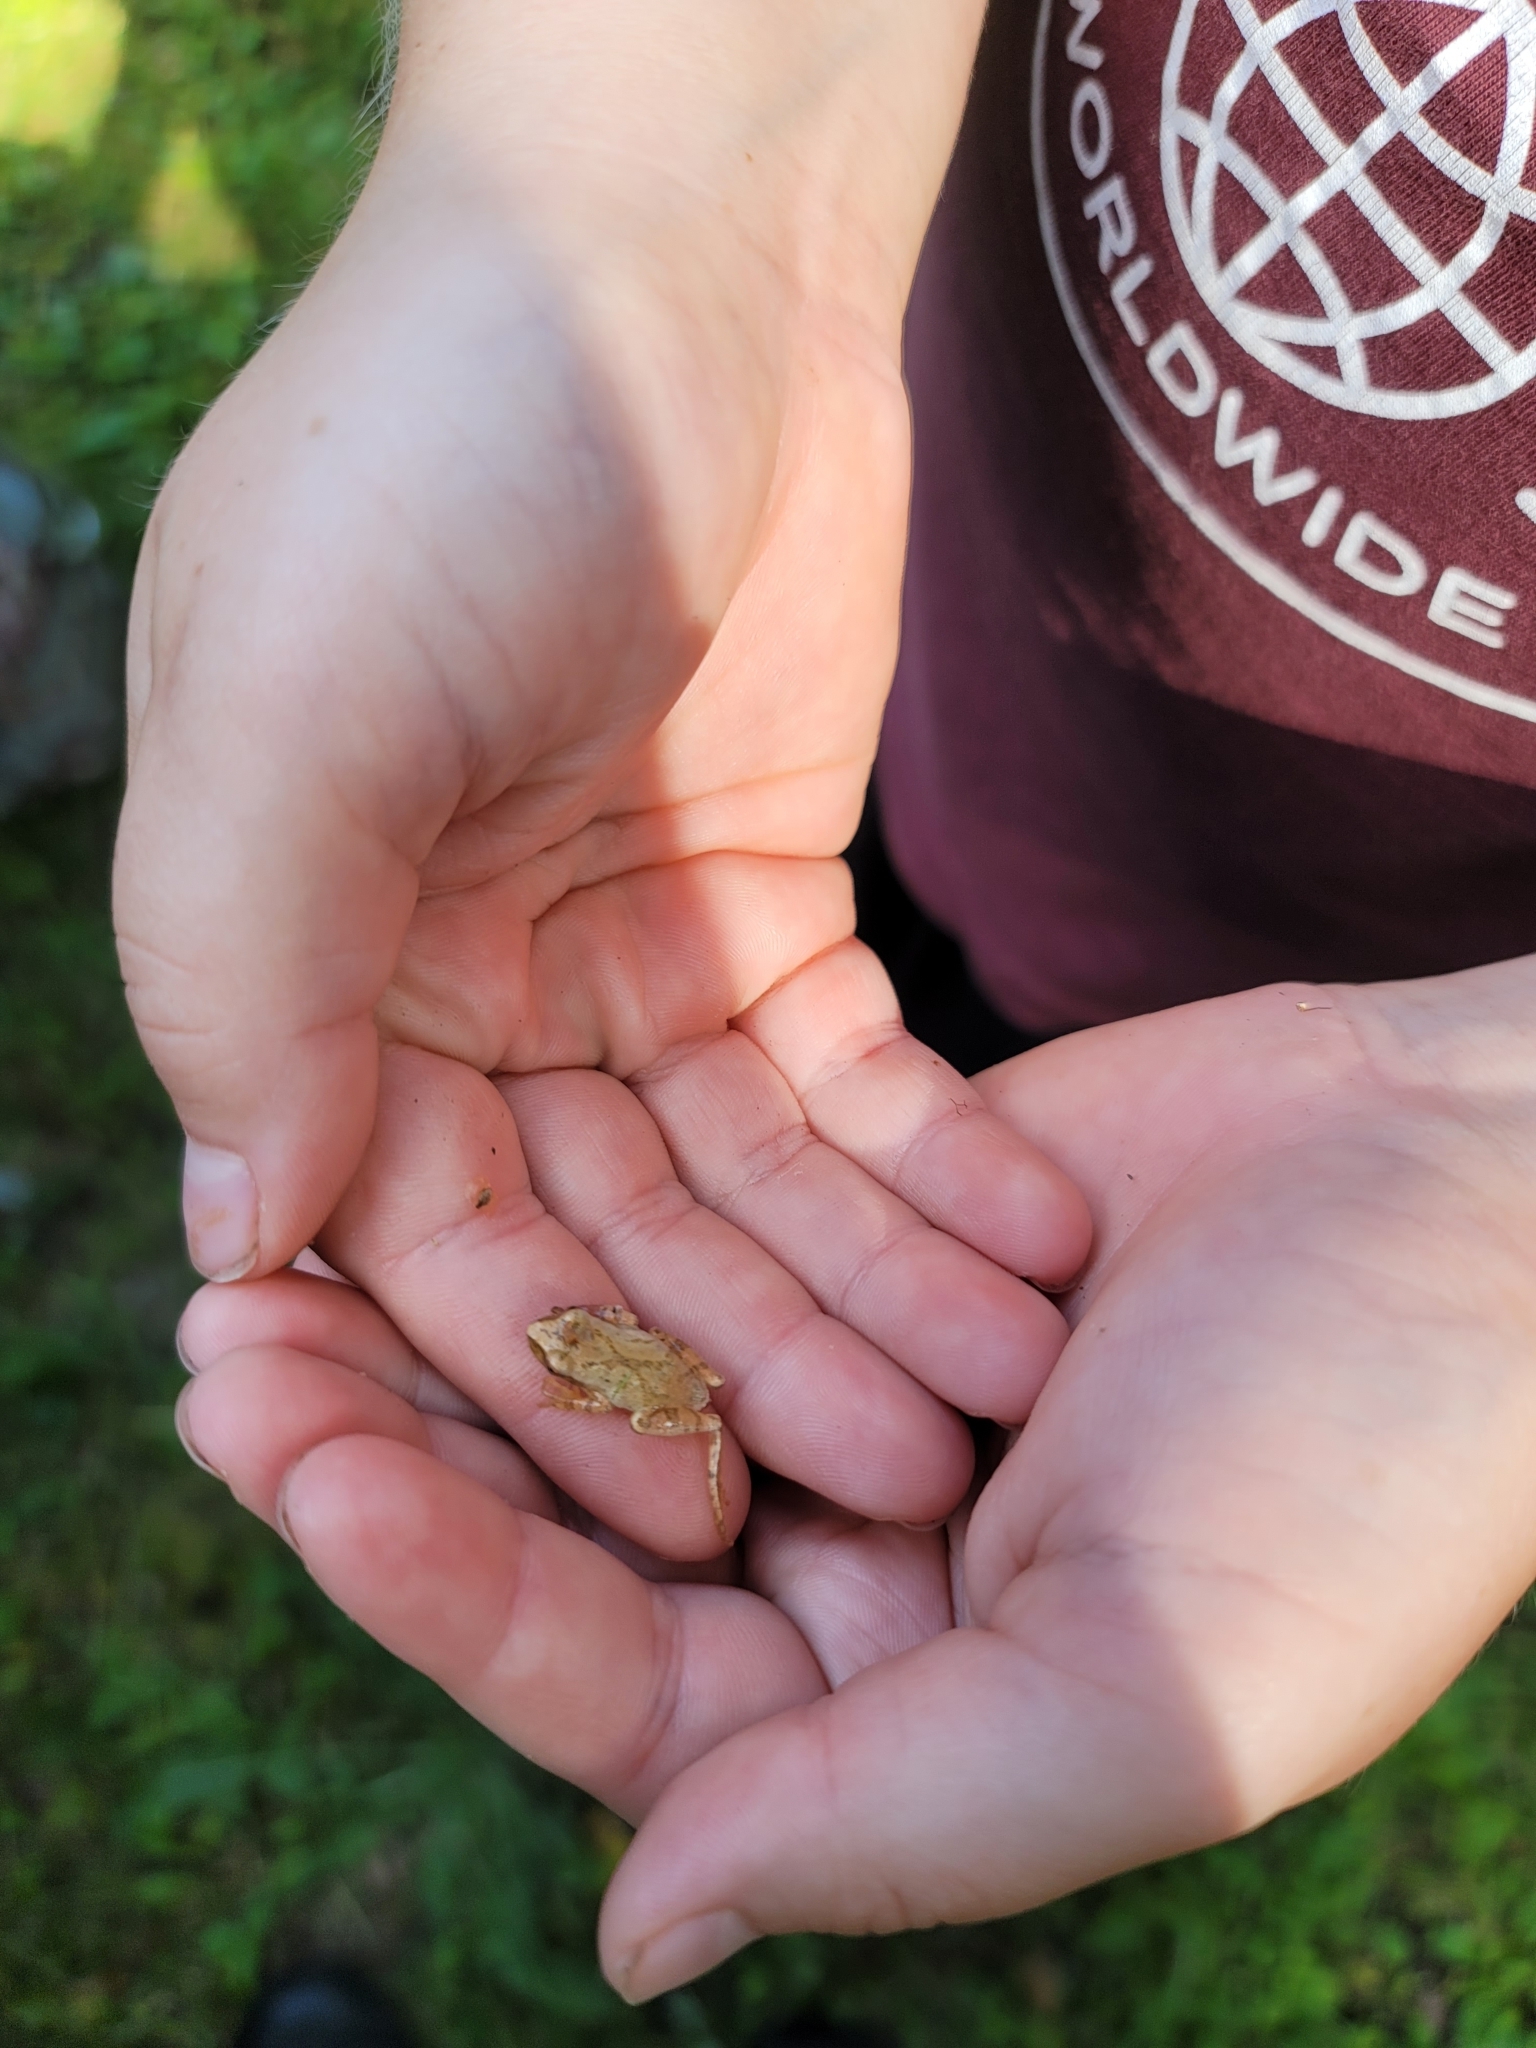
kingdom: Animalia
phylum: Chordata
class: Amphibia
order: Anura
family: Hylidae
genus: Pseudacris
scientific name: Pseudacris crucifer
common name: Spring peeper
